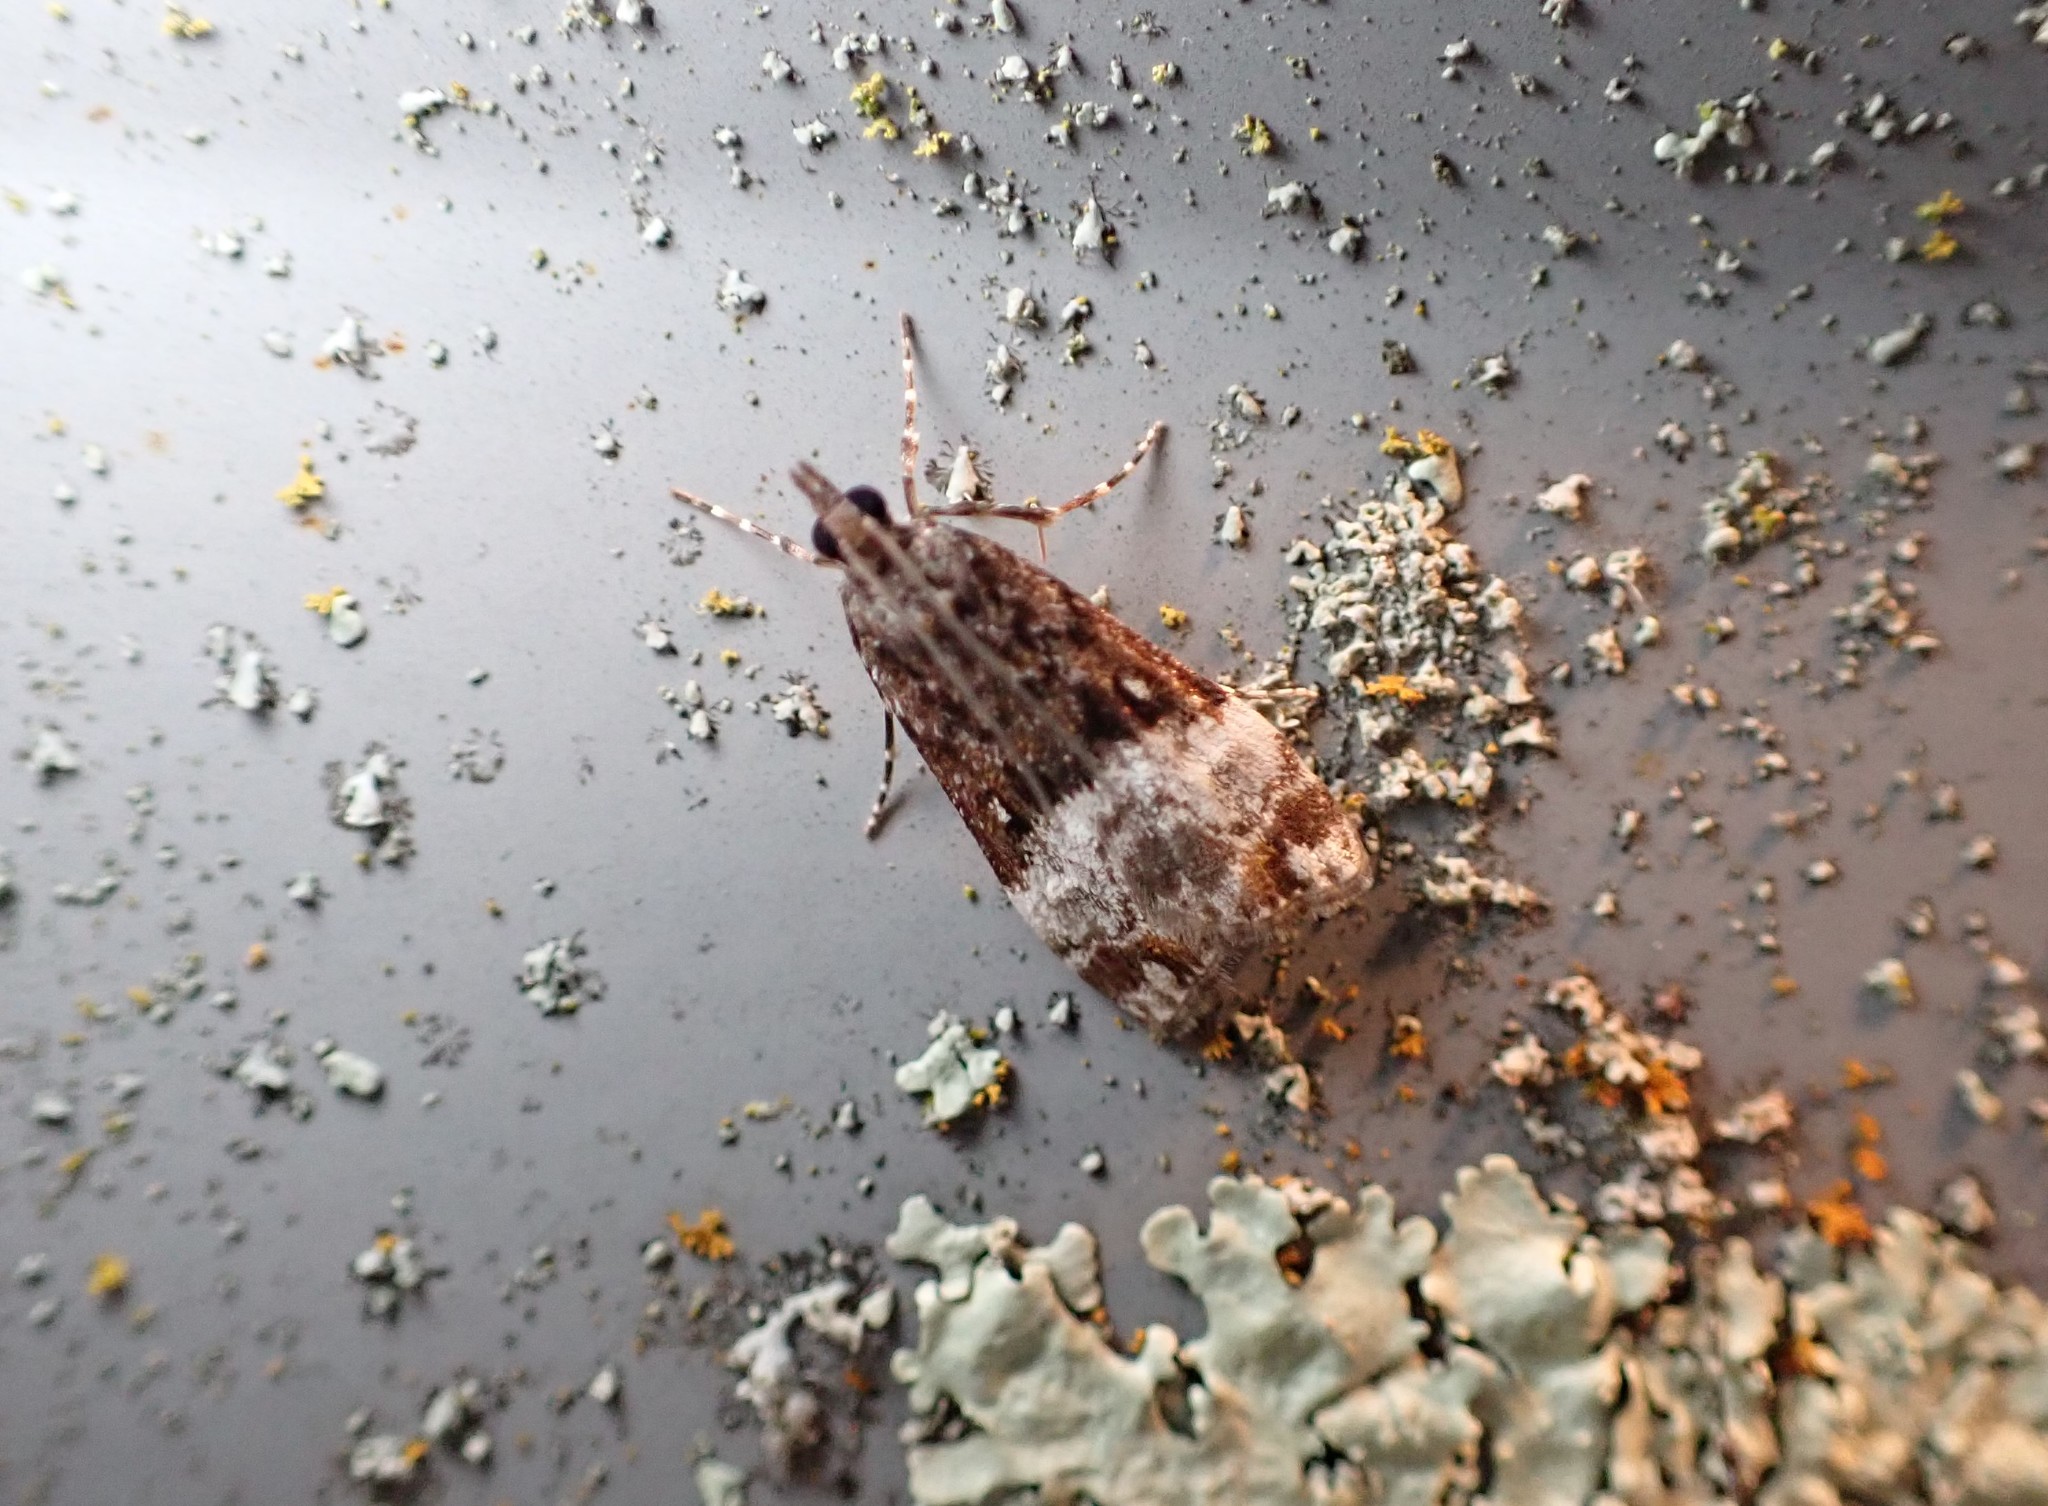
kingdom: Animalia
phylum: Arthropoda
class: Insecta
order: Lepidoptera
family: Crambidae
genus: Scoparia
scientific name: Scoparia minusculalis
